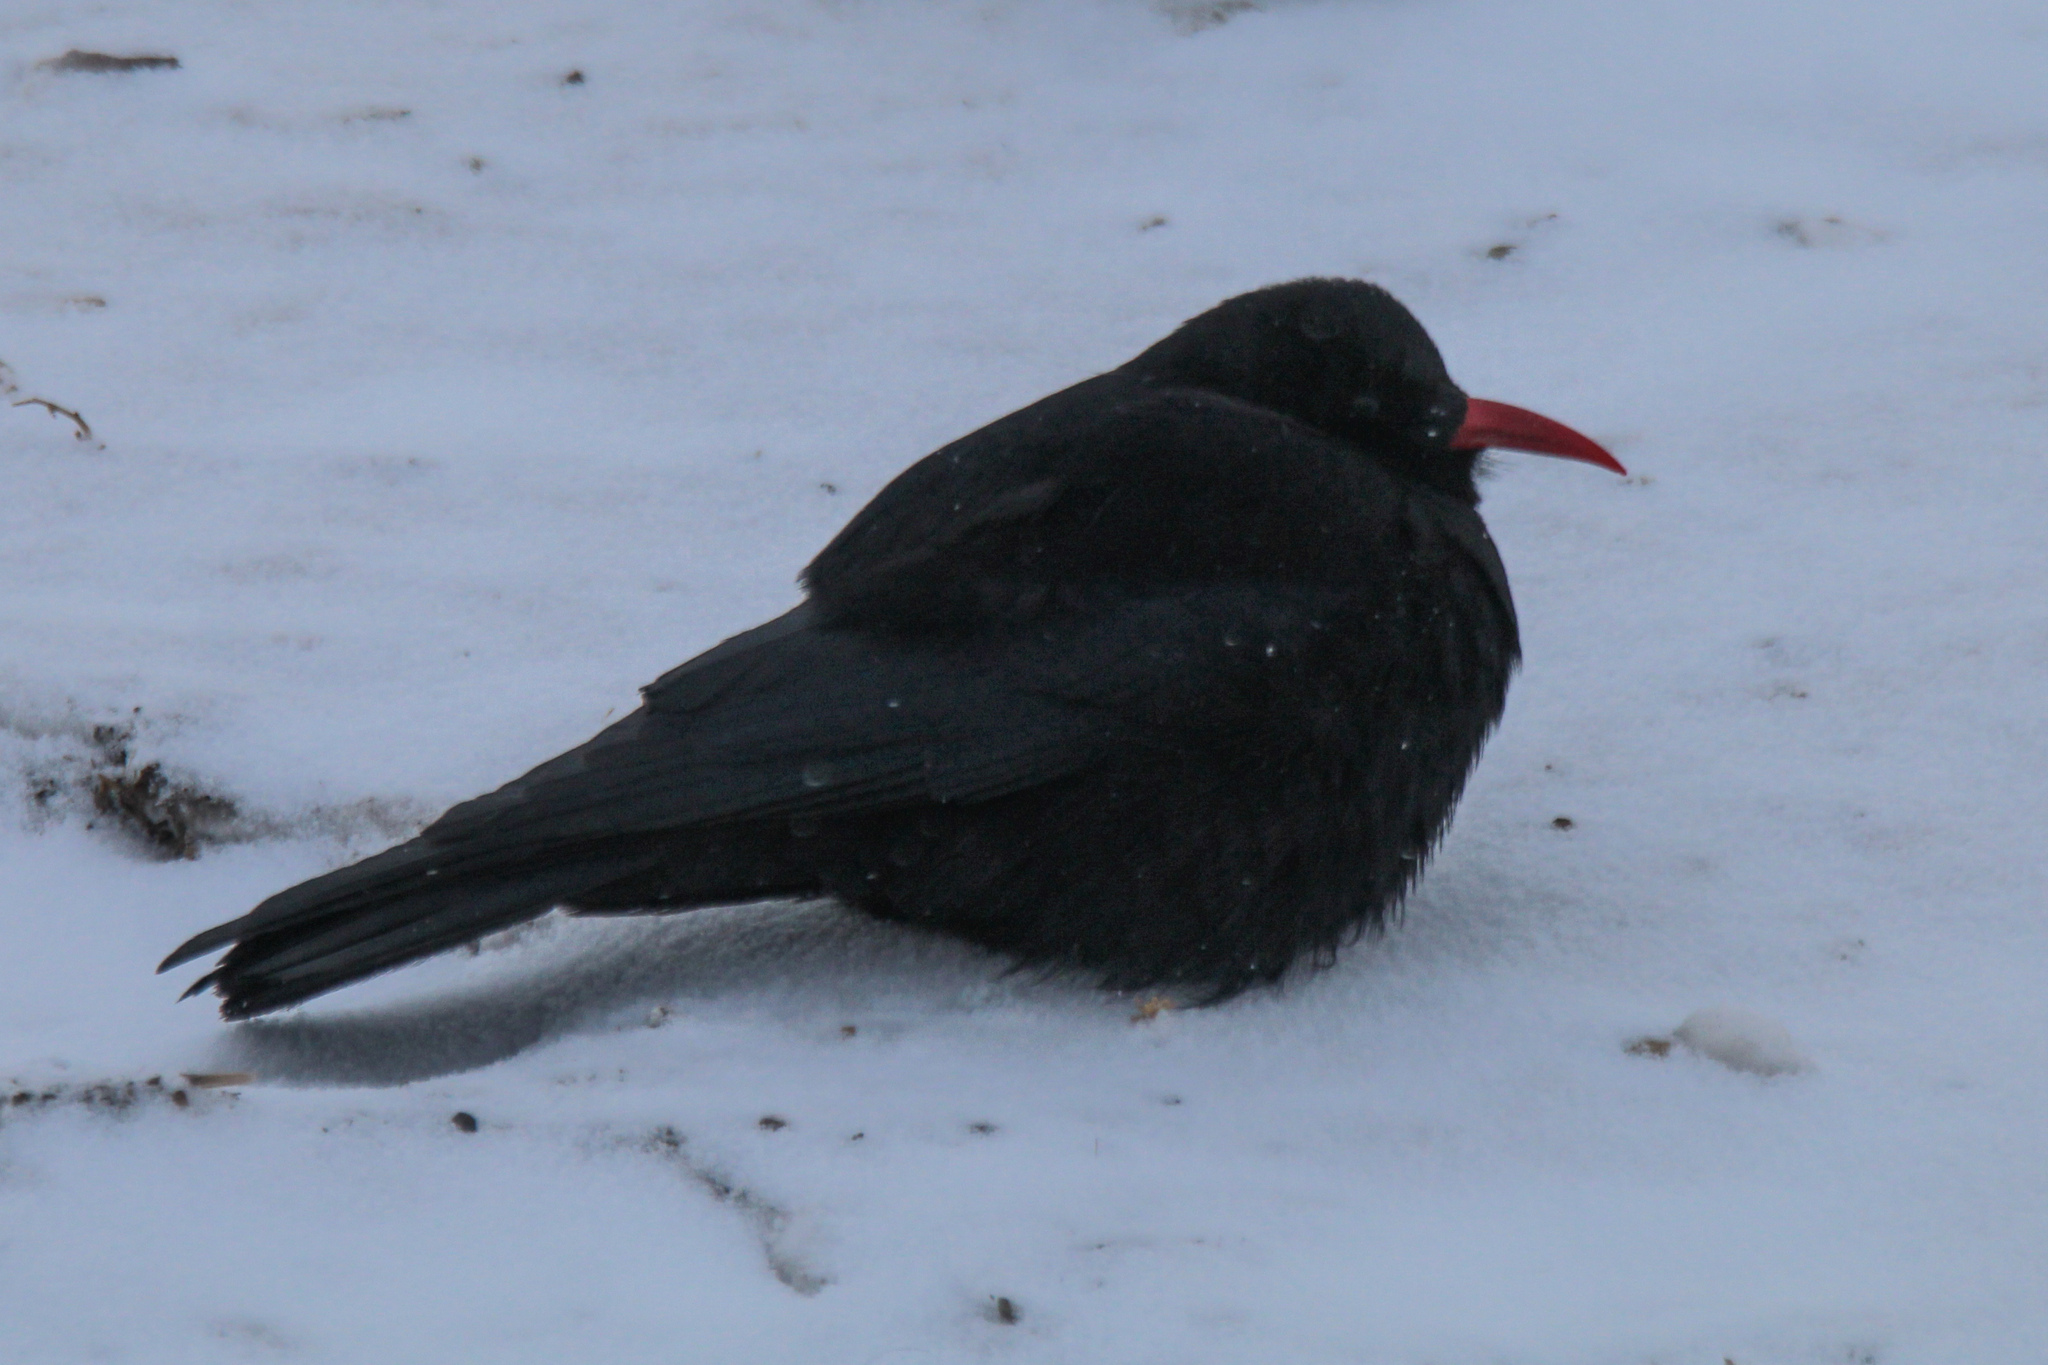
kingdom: Animalia
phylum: Chordata
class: Aves
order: Passeriformes
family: Corvidae
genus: Pyrrhocorax
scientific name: Pyrrhocorax pyrrhocorax
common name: Red-billed chough
